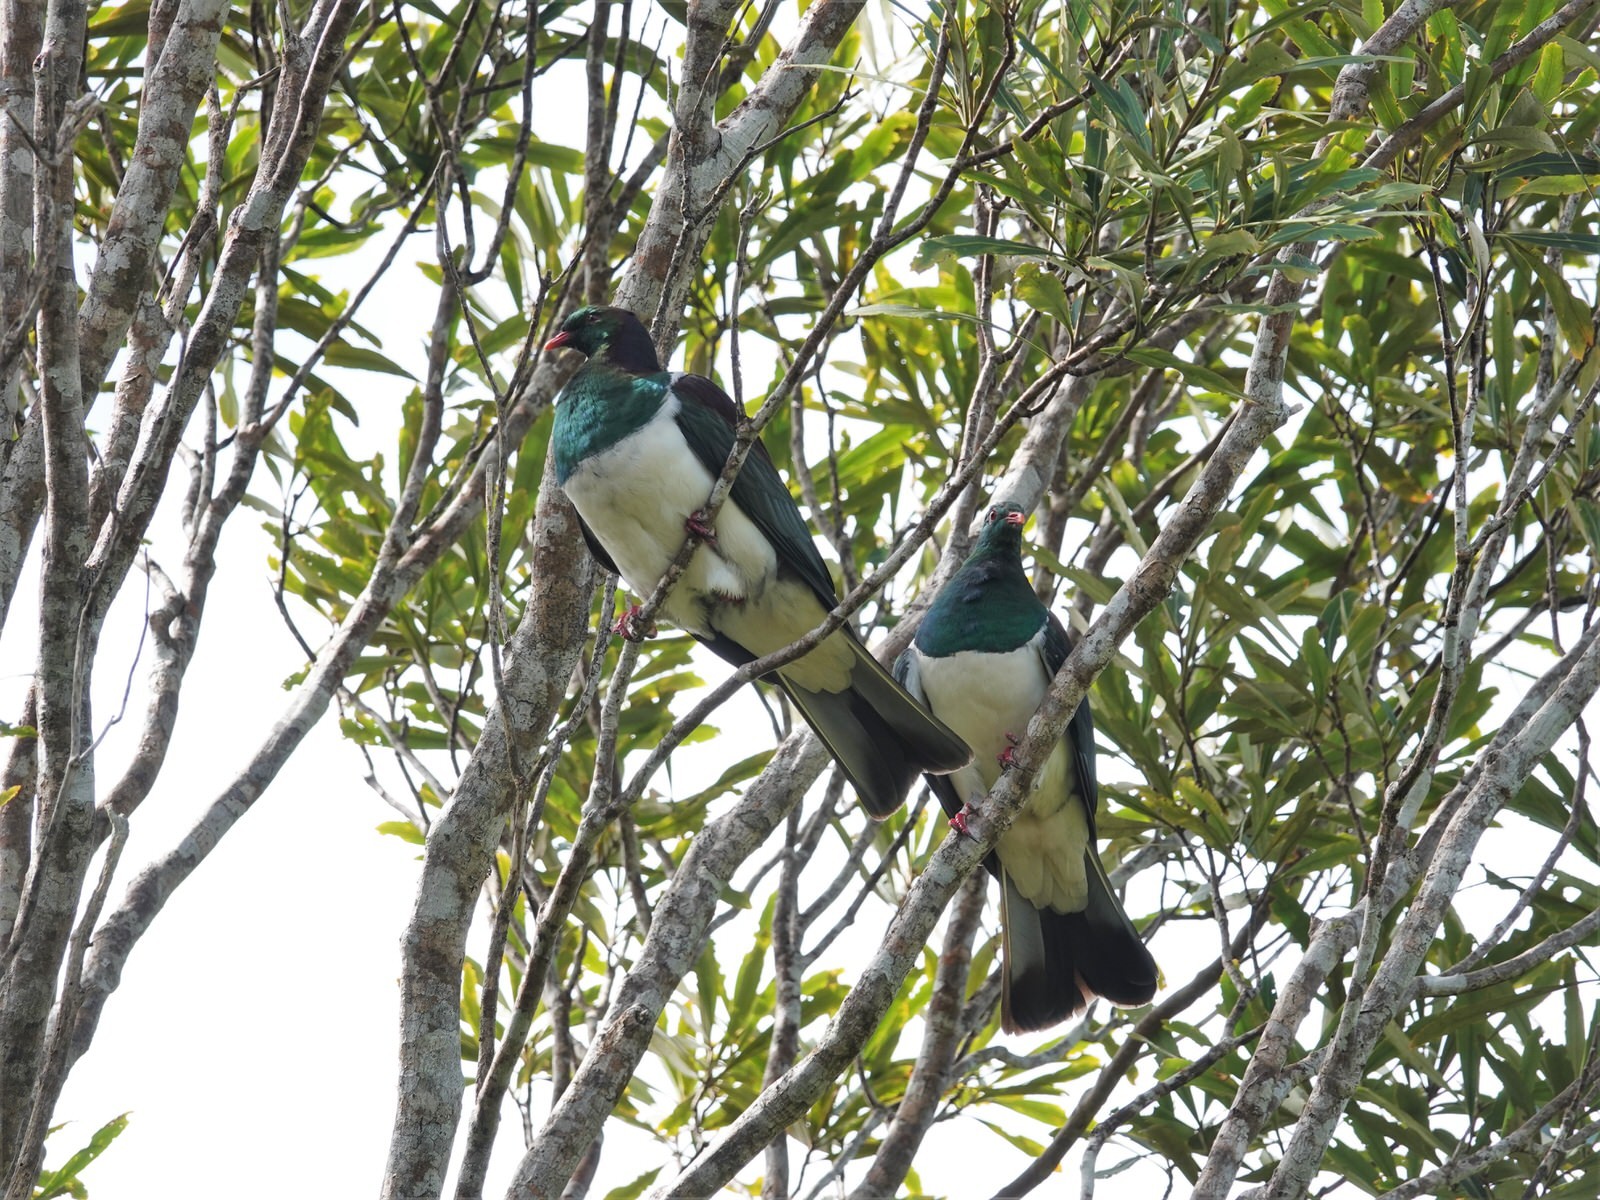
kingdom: Animalia
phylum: Chordata
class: Aves
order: Columbiformes
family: Columbidae
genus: Hemiphaga
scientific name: Hemiphaga novaeseelandiae
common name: New zealand pigeon
